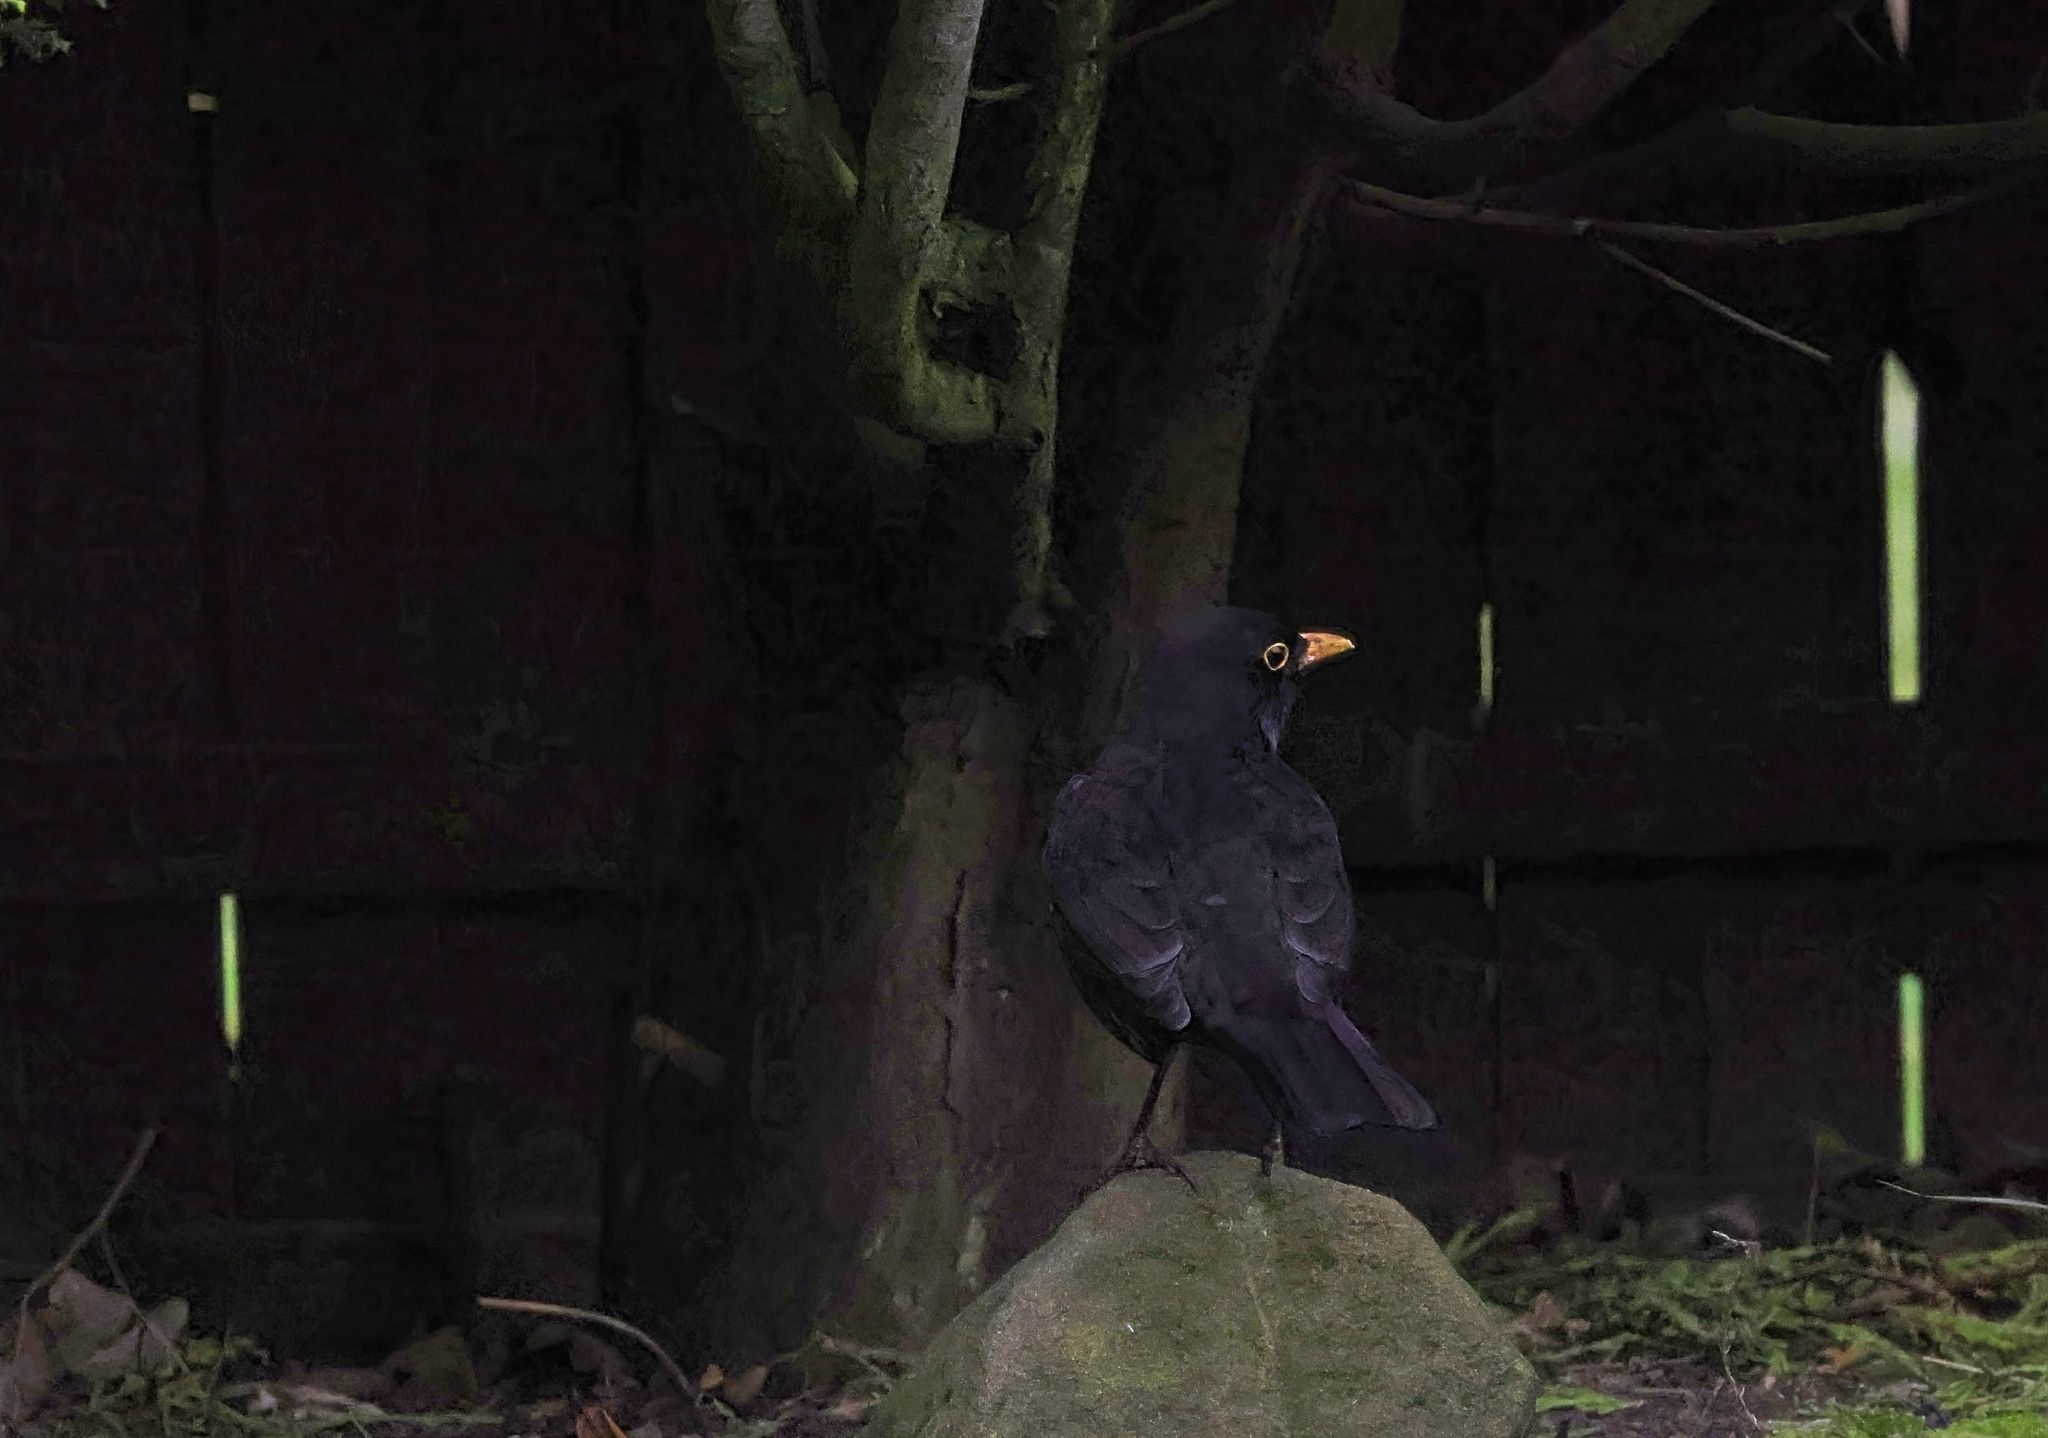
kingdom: Animalia
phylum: Chordata
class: Aves
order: Passeriformes
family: Turdidae
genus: Turdus
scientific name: Turdus merula
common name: Common blackbird
